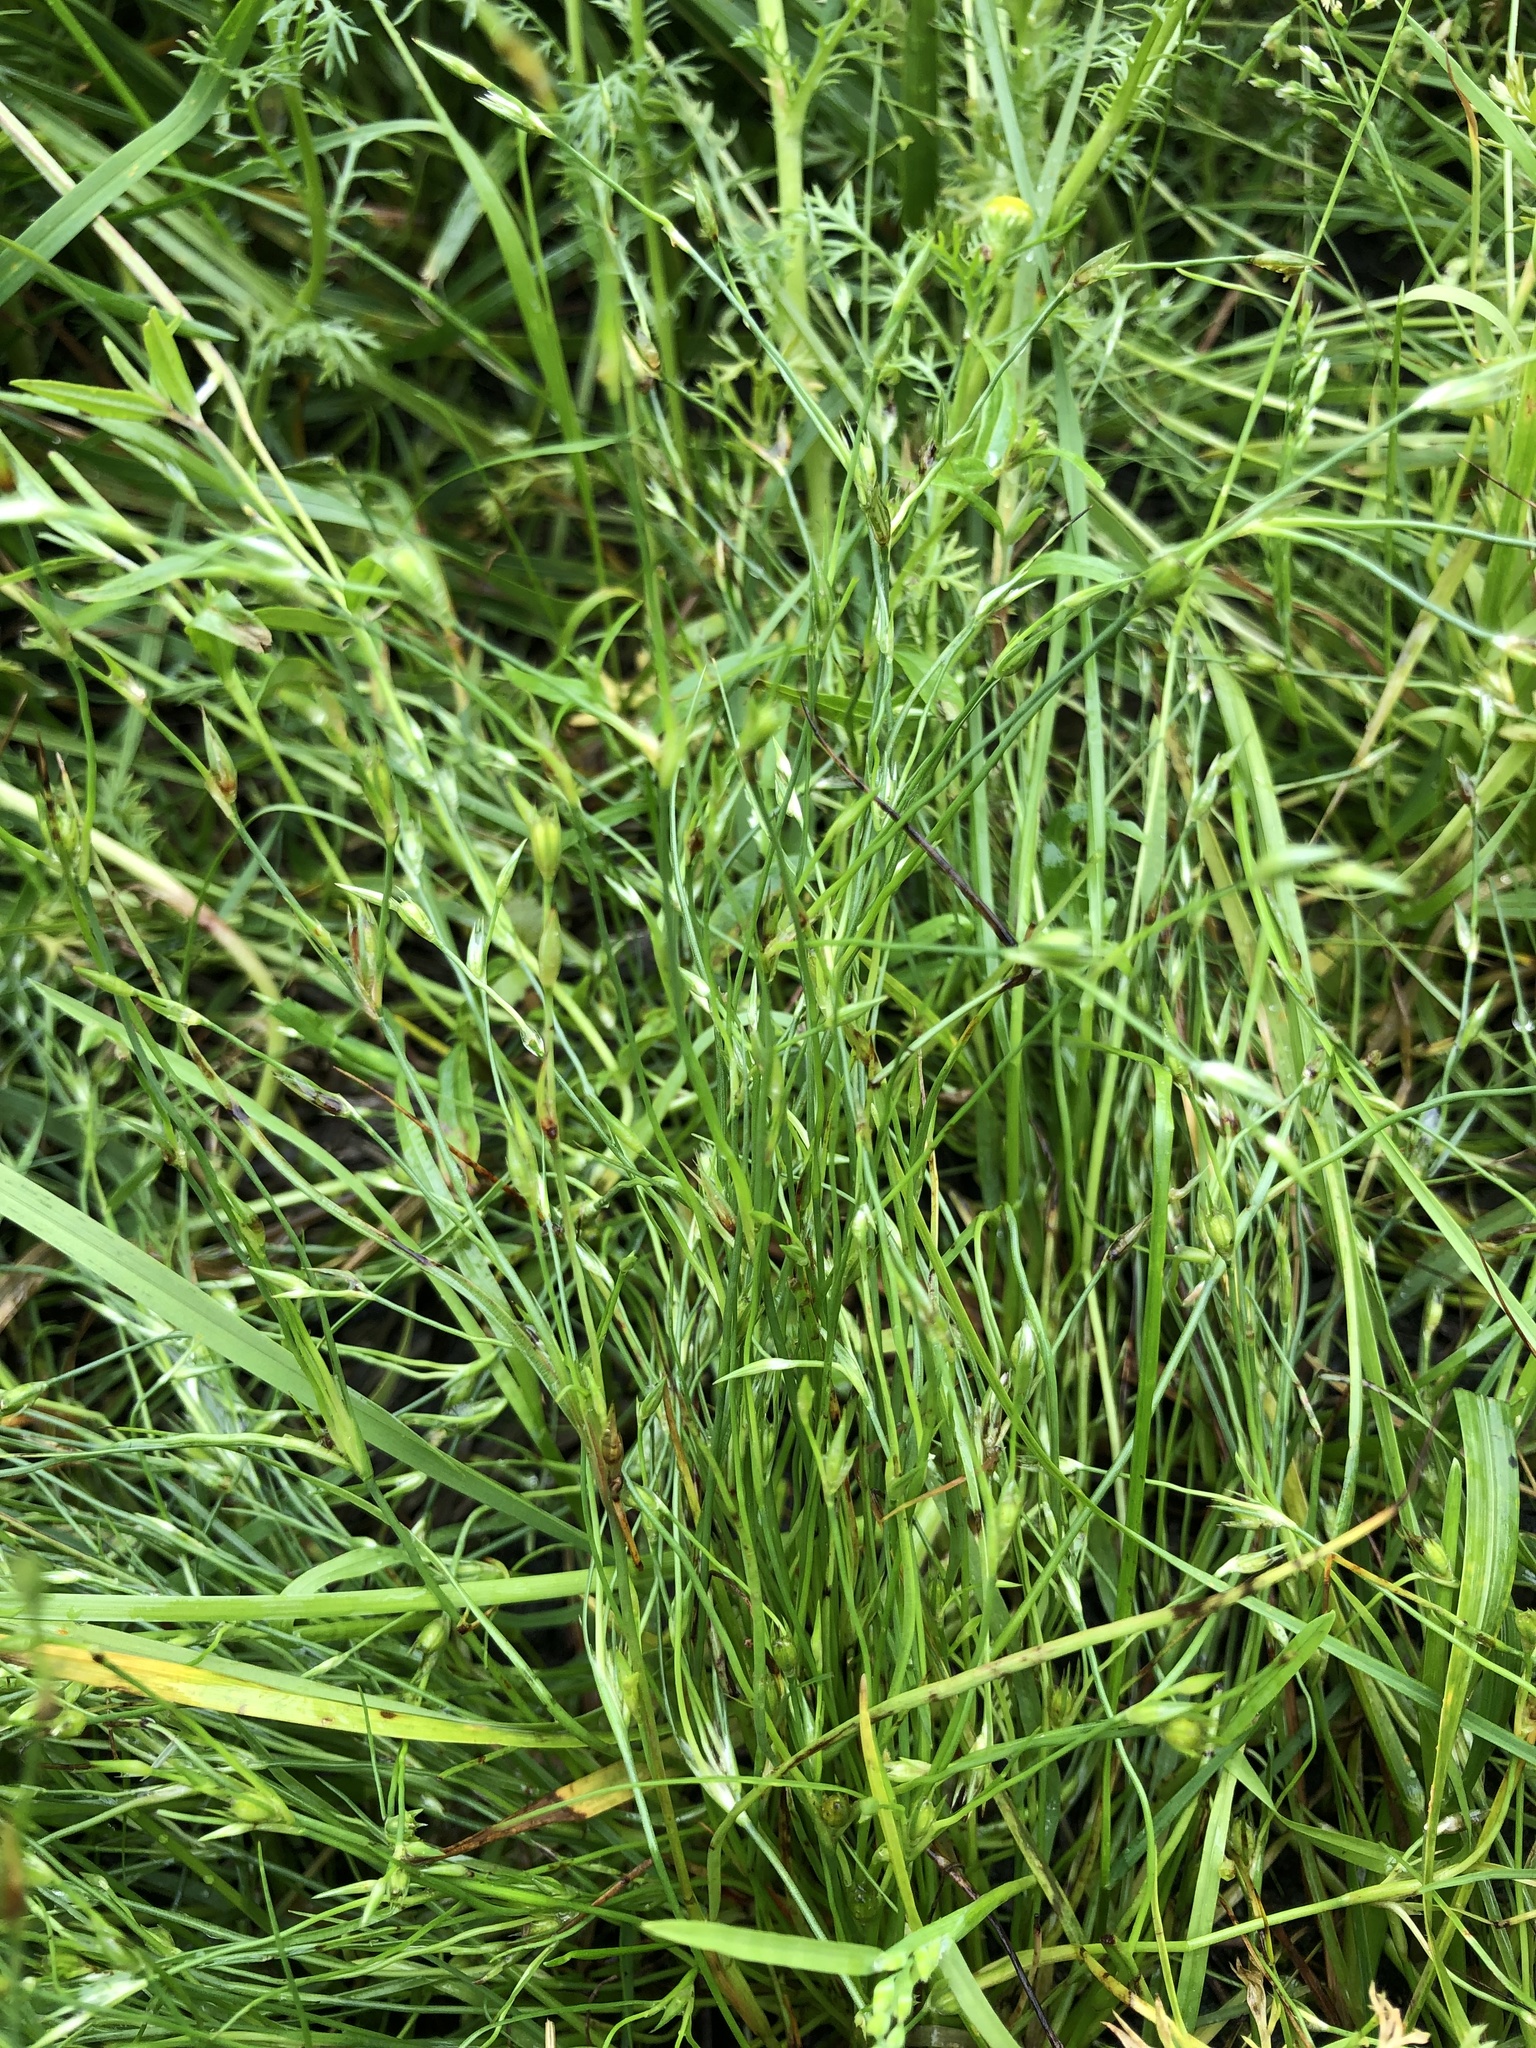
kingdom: Plantae
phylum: Tracheophyta
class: Liliopsida
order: Poales
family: Juncaceae
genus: Juncus
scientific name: Juncus bufonius
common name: Toad rush
